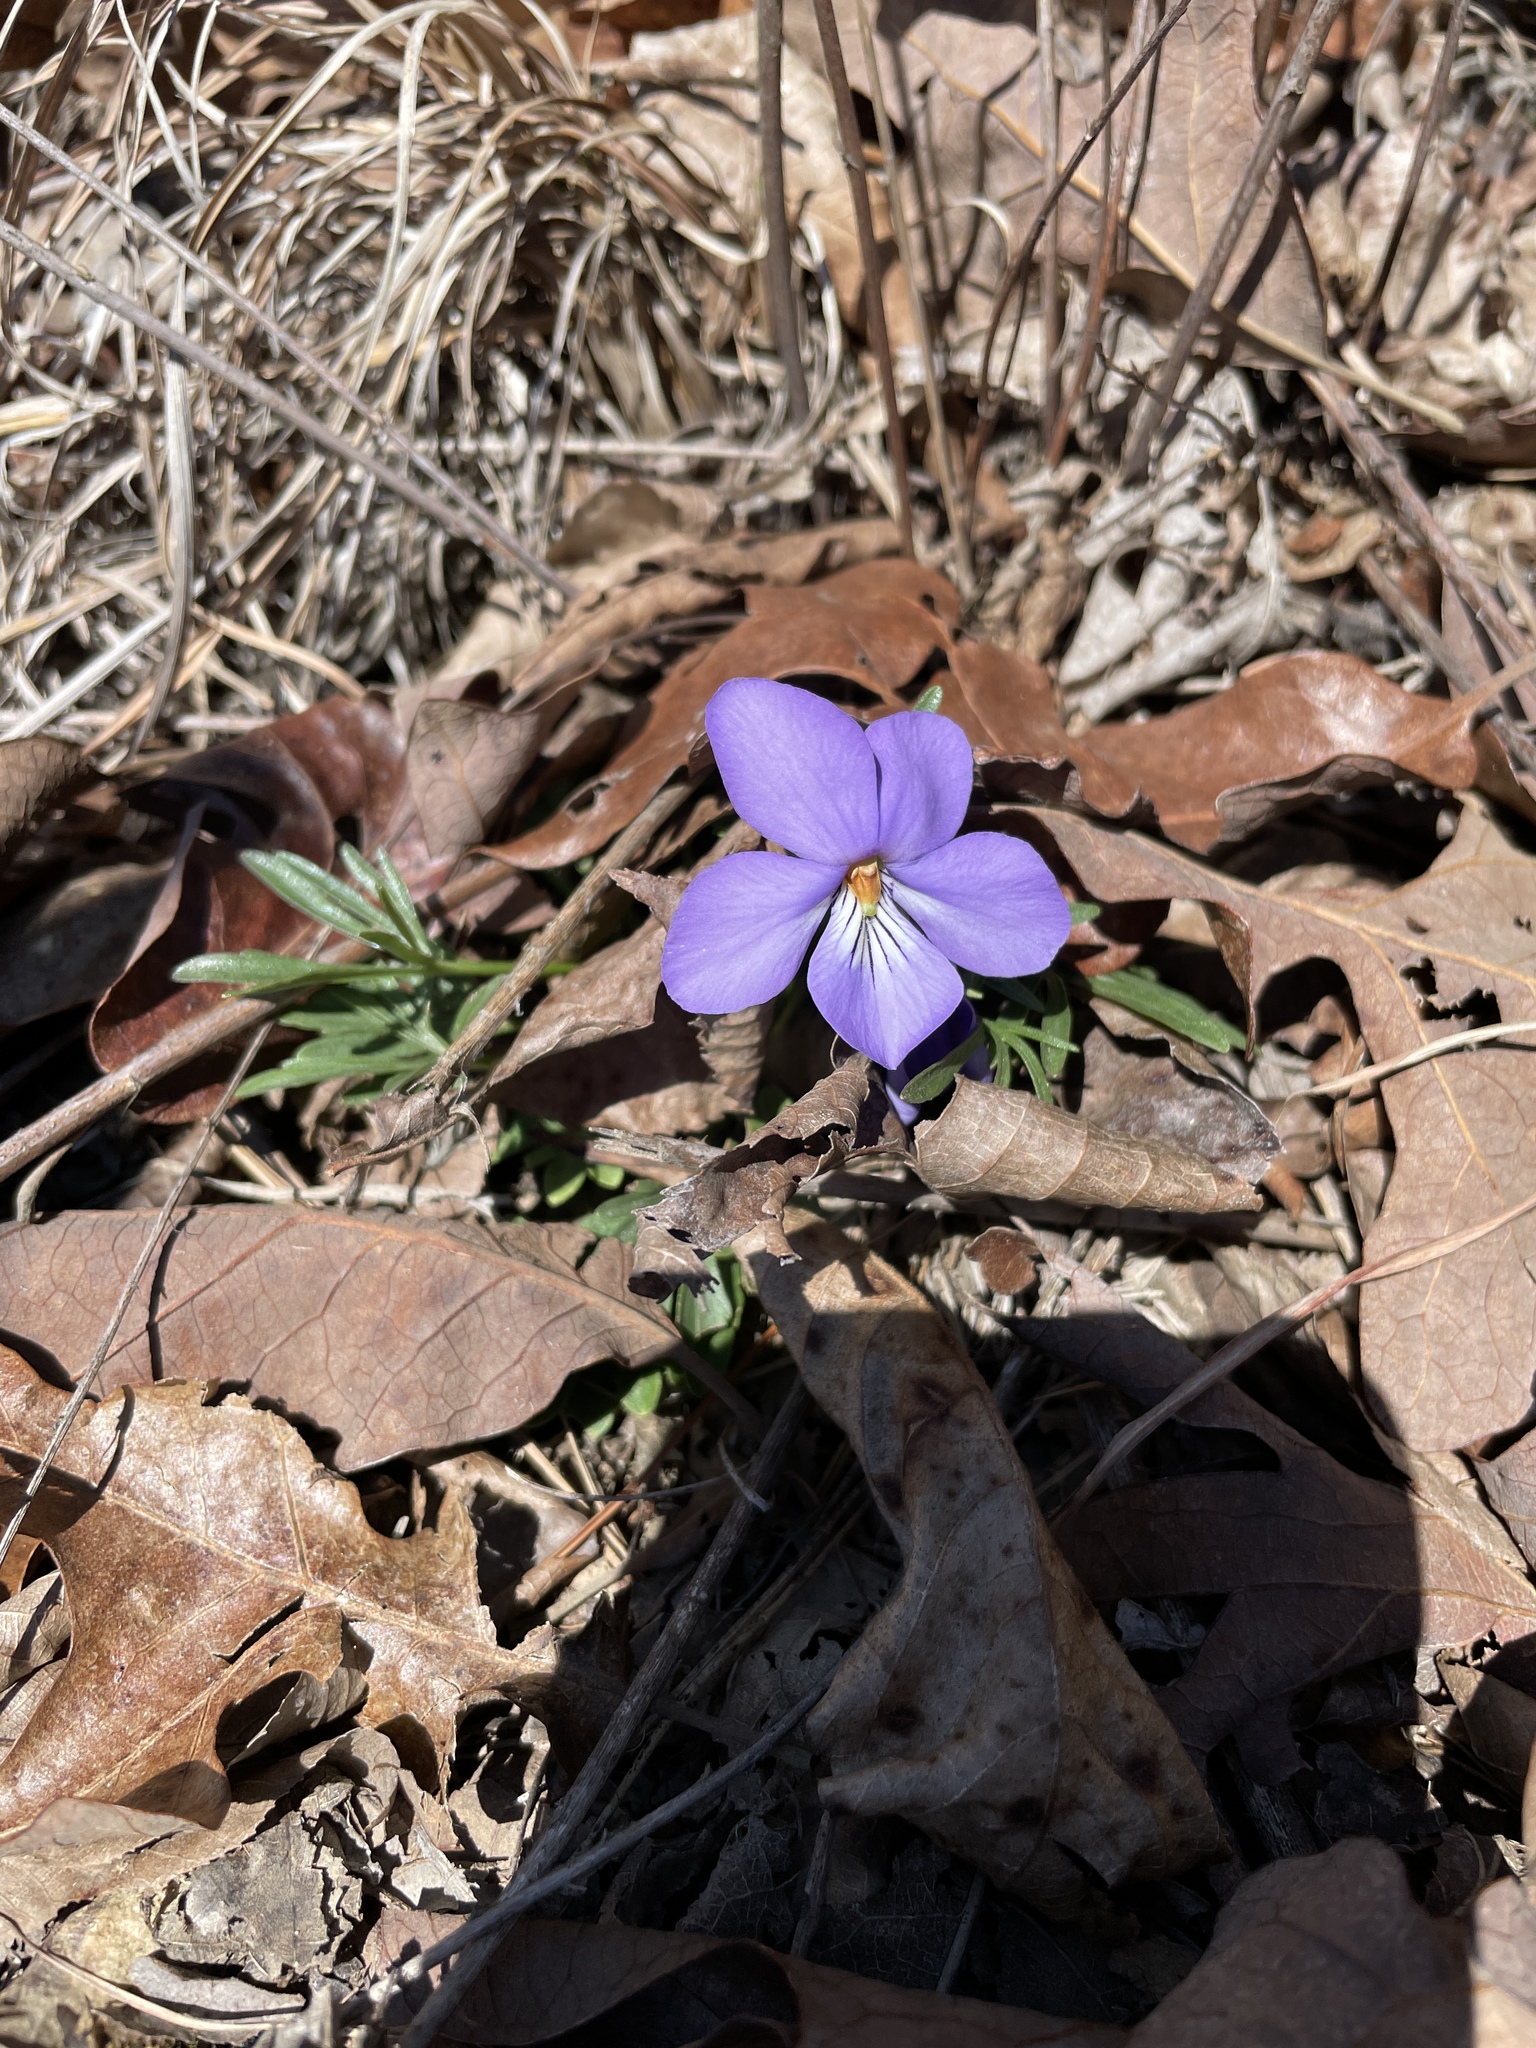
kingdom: Plantae
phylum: Tracheophyta
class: Magnoliopsida
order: Malpighiales
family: Violaceae
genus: Viola
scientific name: Viola pedata
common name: Pansy violet
